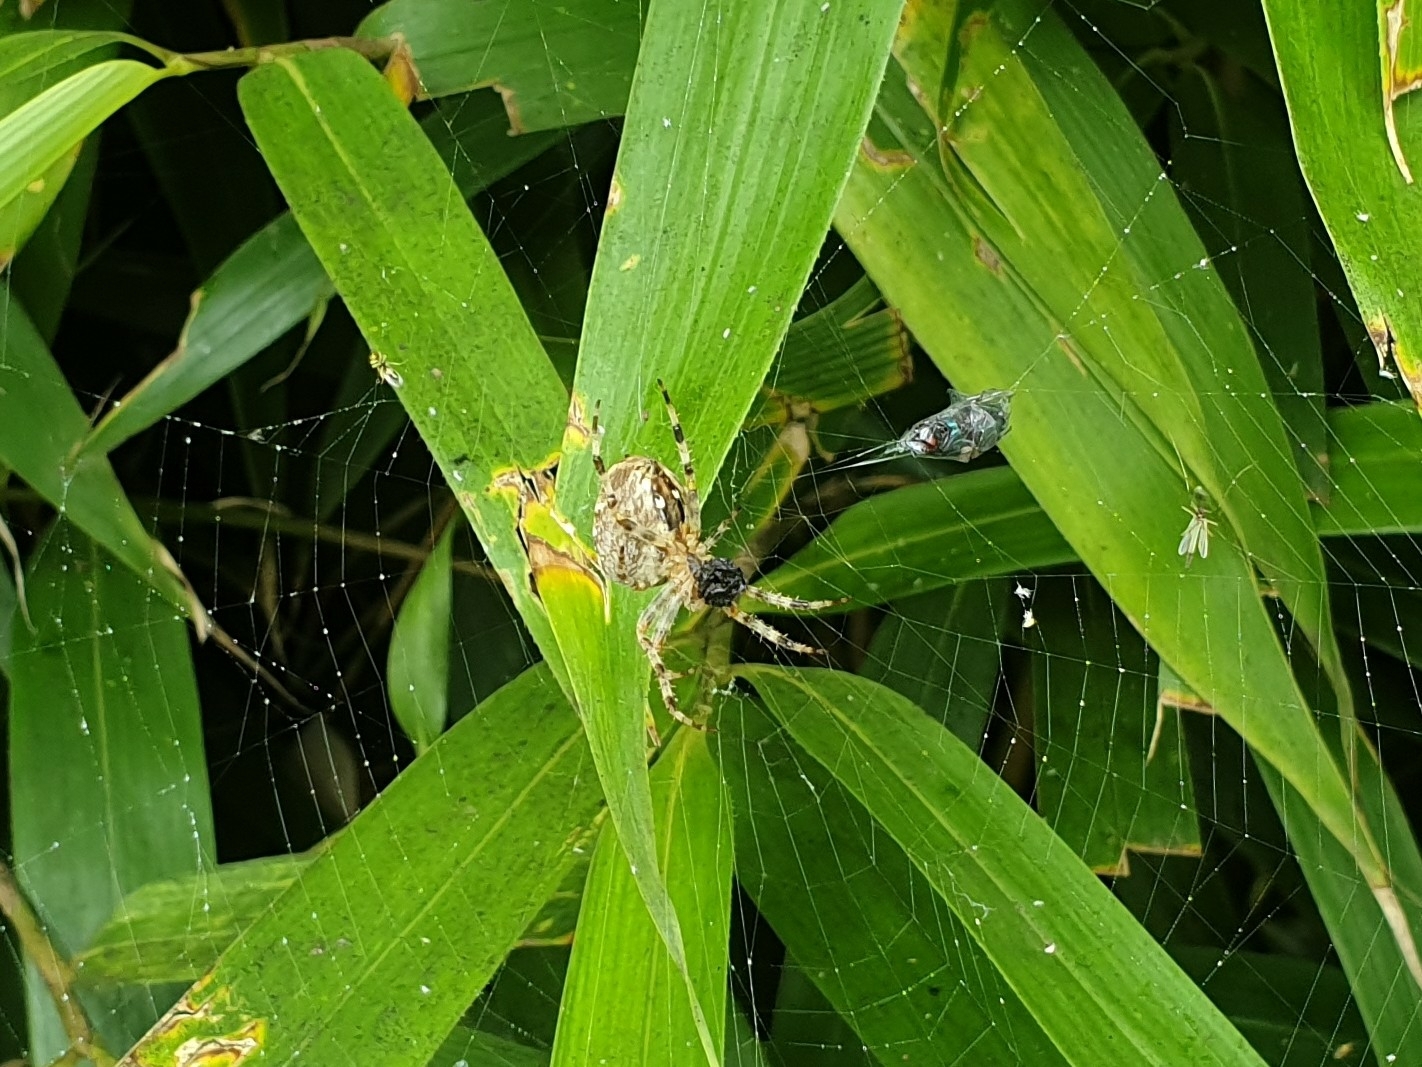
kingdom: Animalia
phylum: Arthropoda
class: Arachnida
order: Araneae
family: Araneidae
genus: Araneus
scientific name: Araneus diadematus
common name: Cross orbweaver
